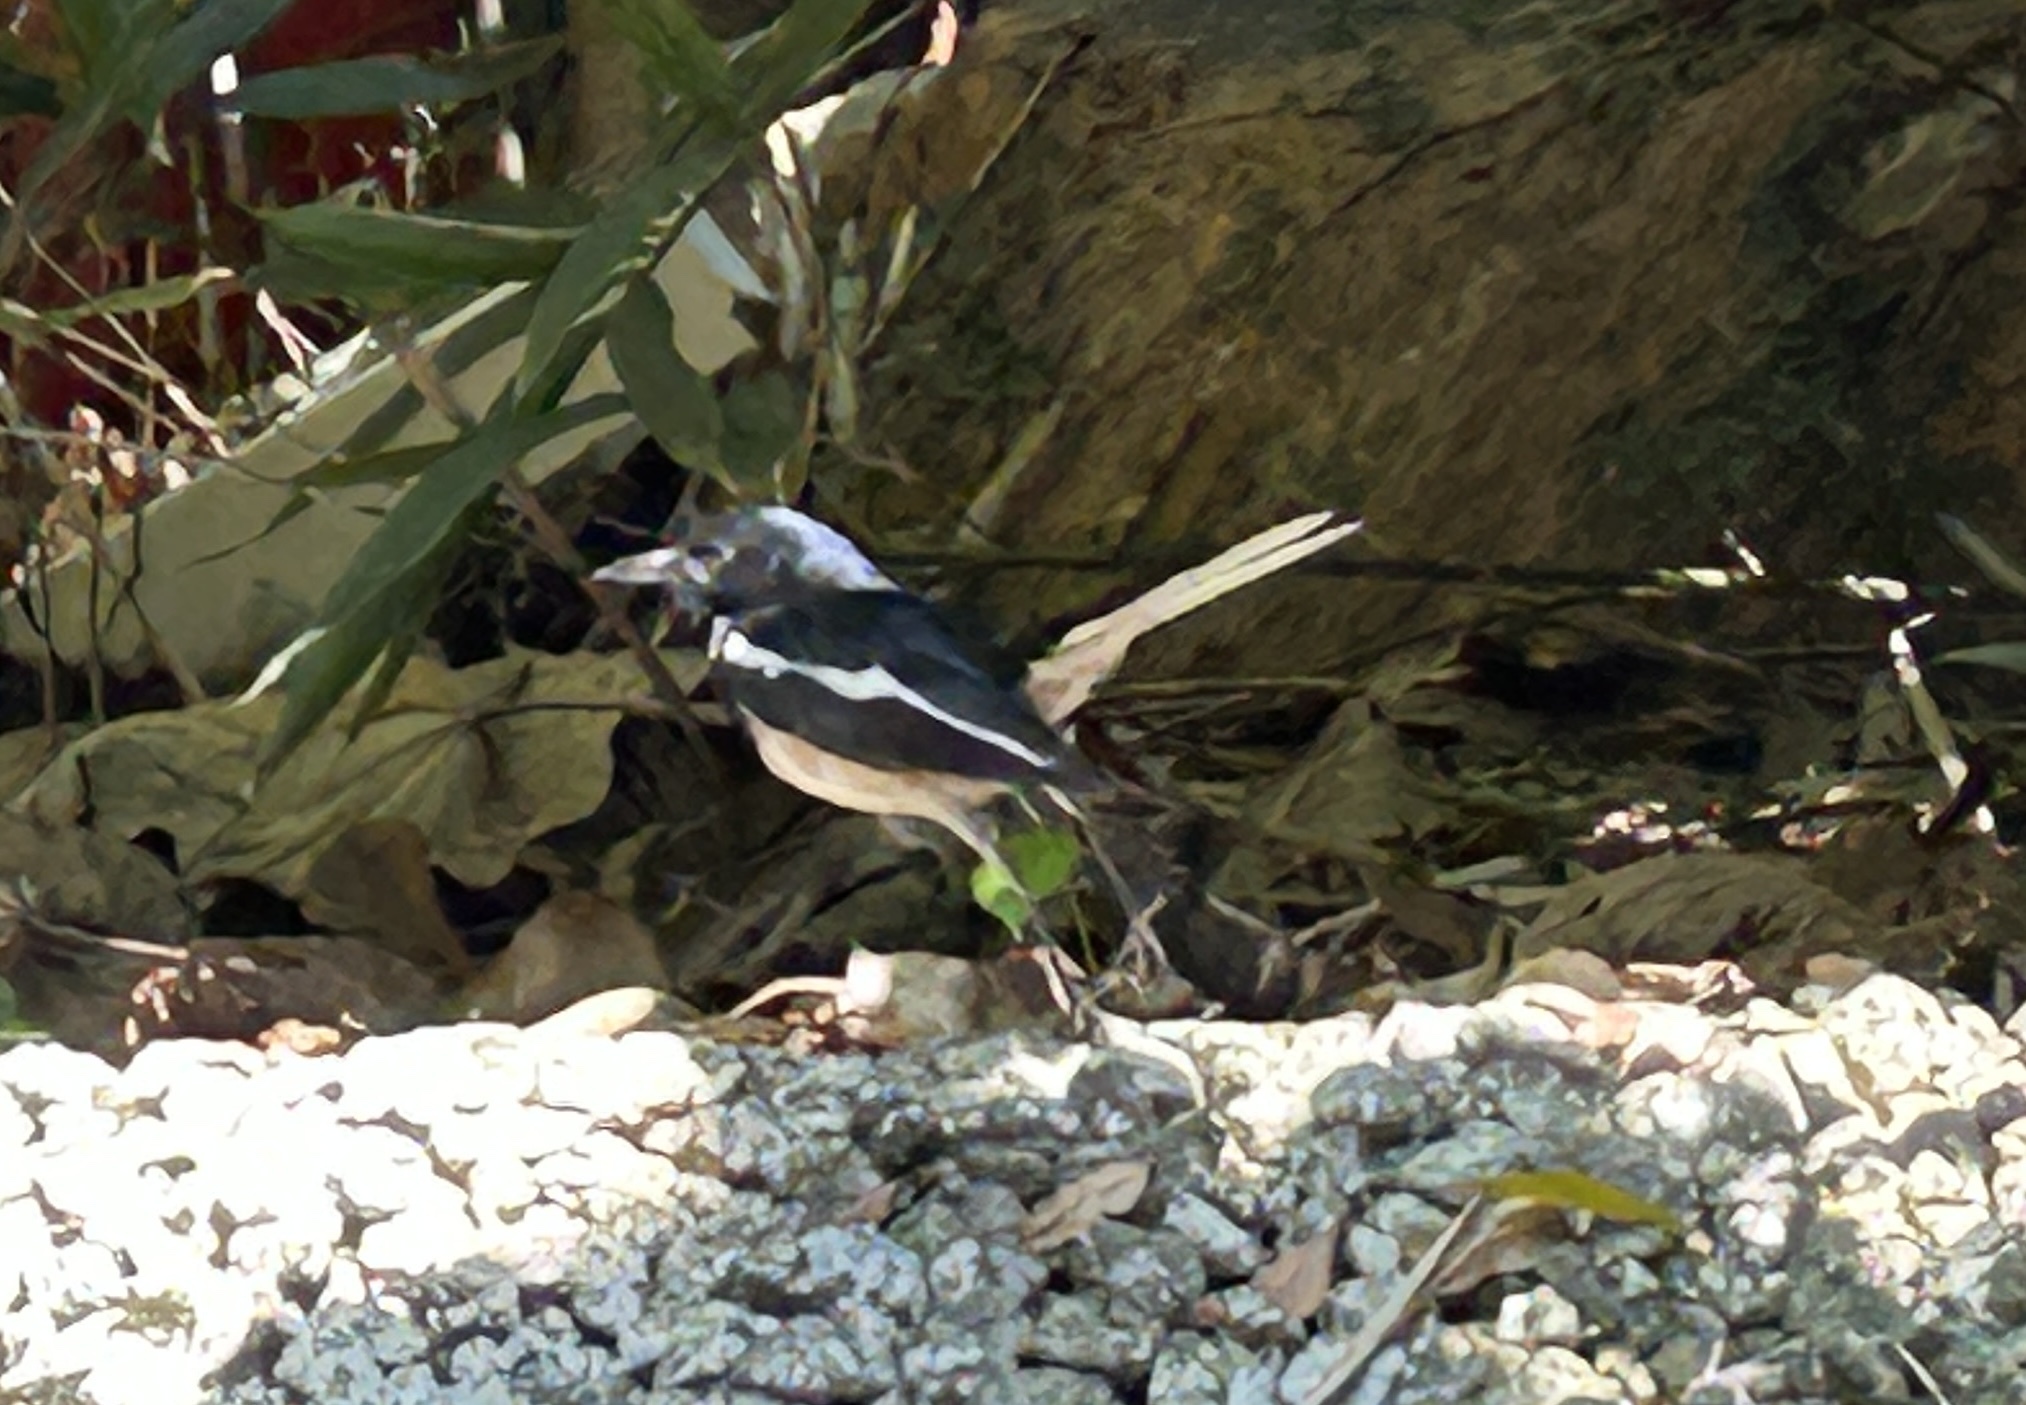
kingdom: Animalia
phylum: Chordata
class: Aves
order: Passeriformes
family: Muscicapidae
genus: Copsychus
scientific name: Copsychus saularis
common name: Oriental magpie-robin
